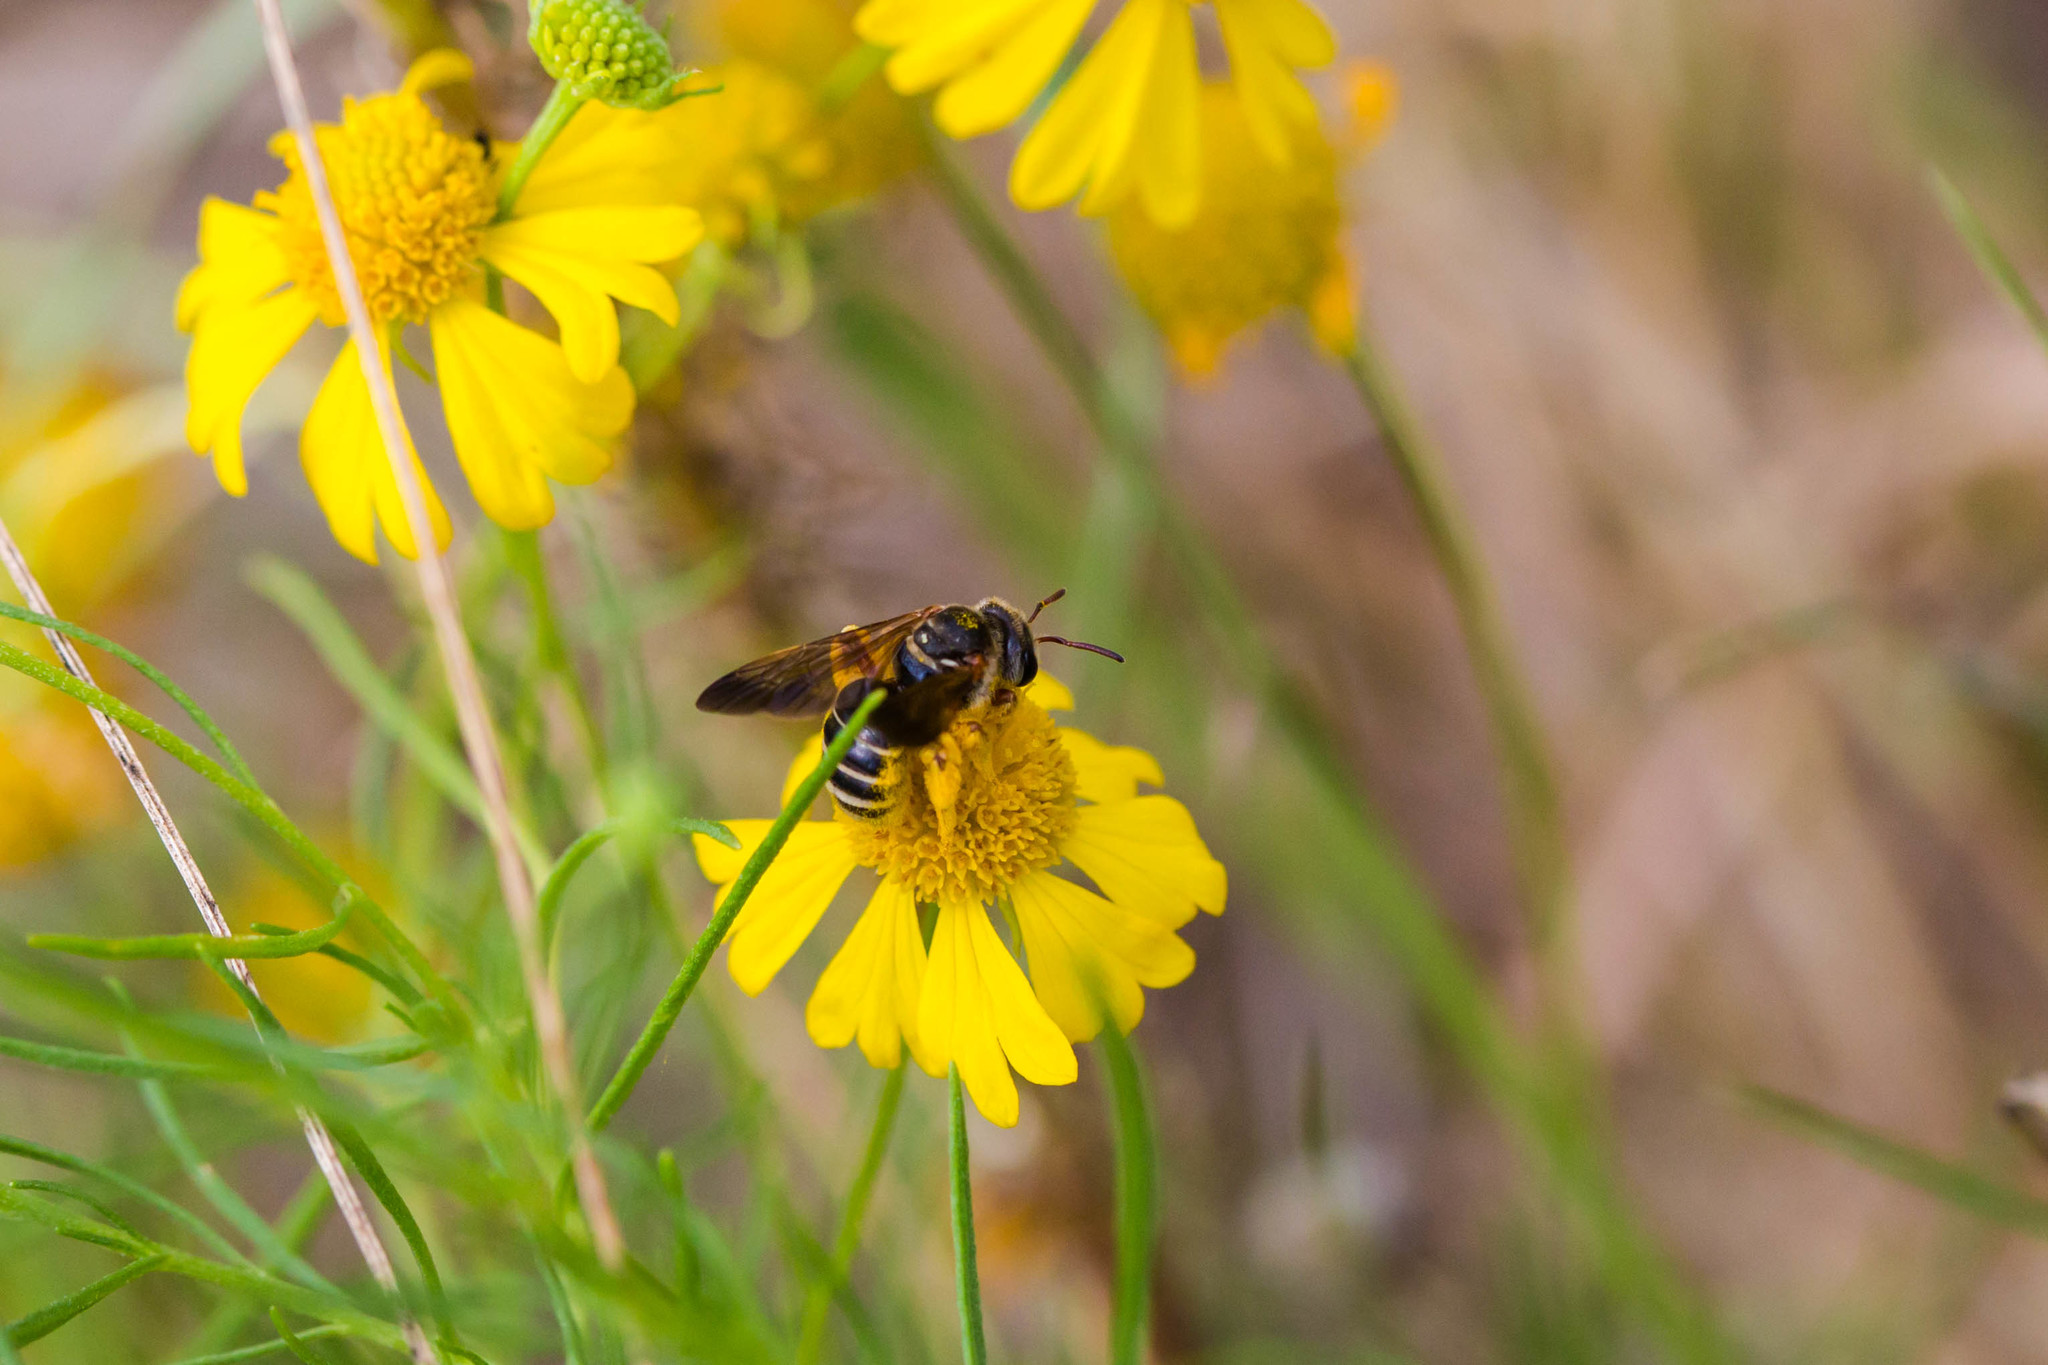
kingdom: Animalia
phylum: Arthropoda
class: Insecta
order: Hymenoptera
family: Halictidae
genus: Dieunomia
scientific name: Dieunomia nevadensis
